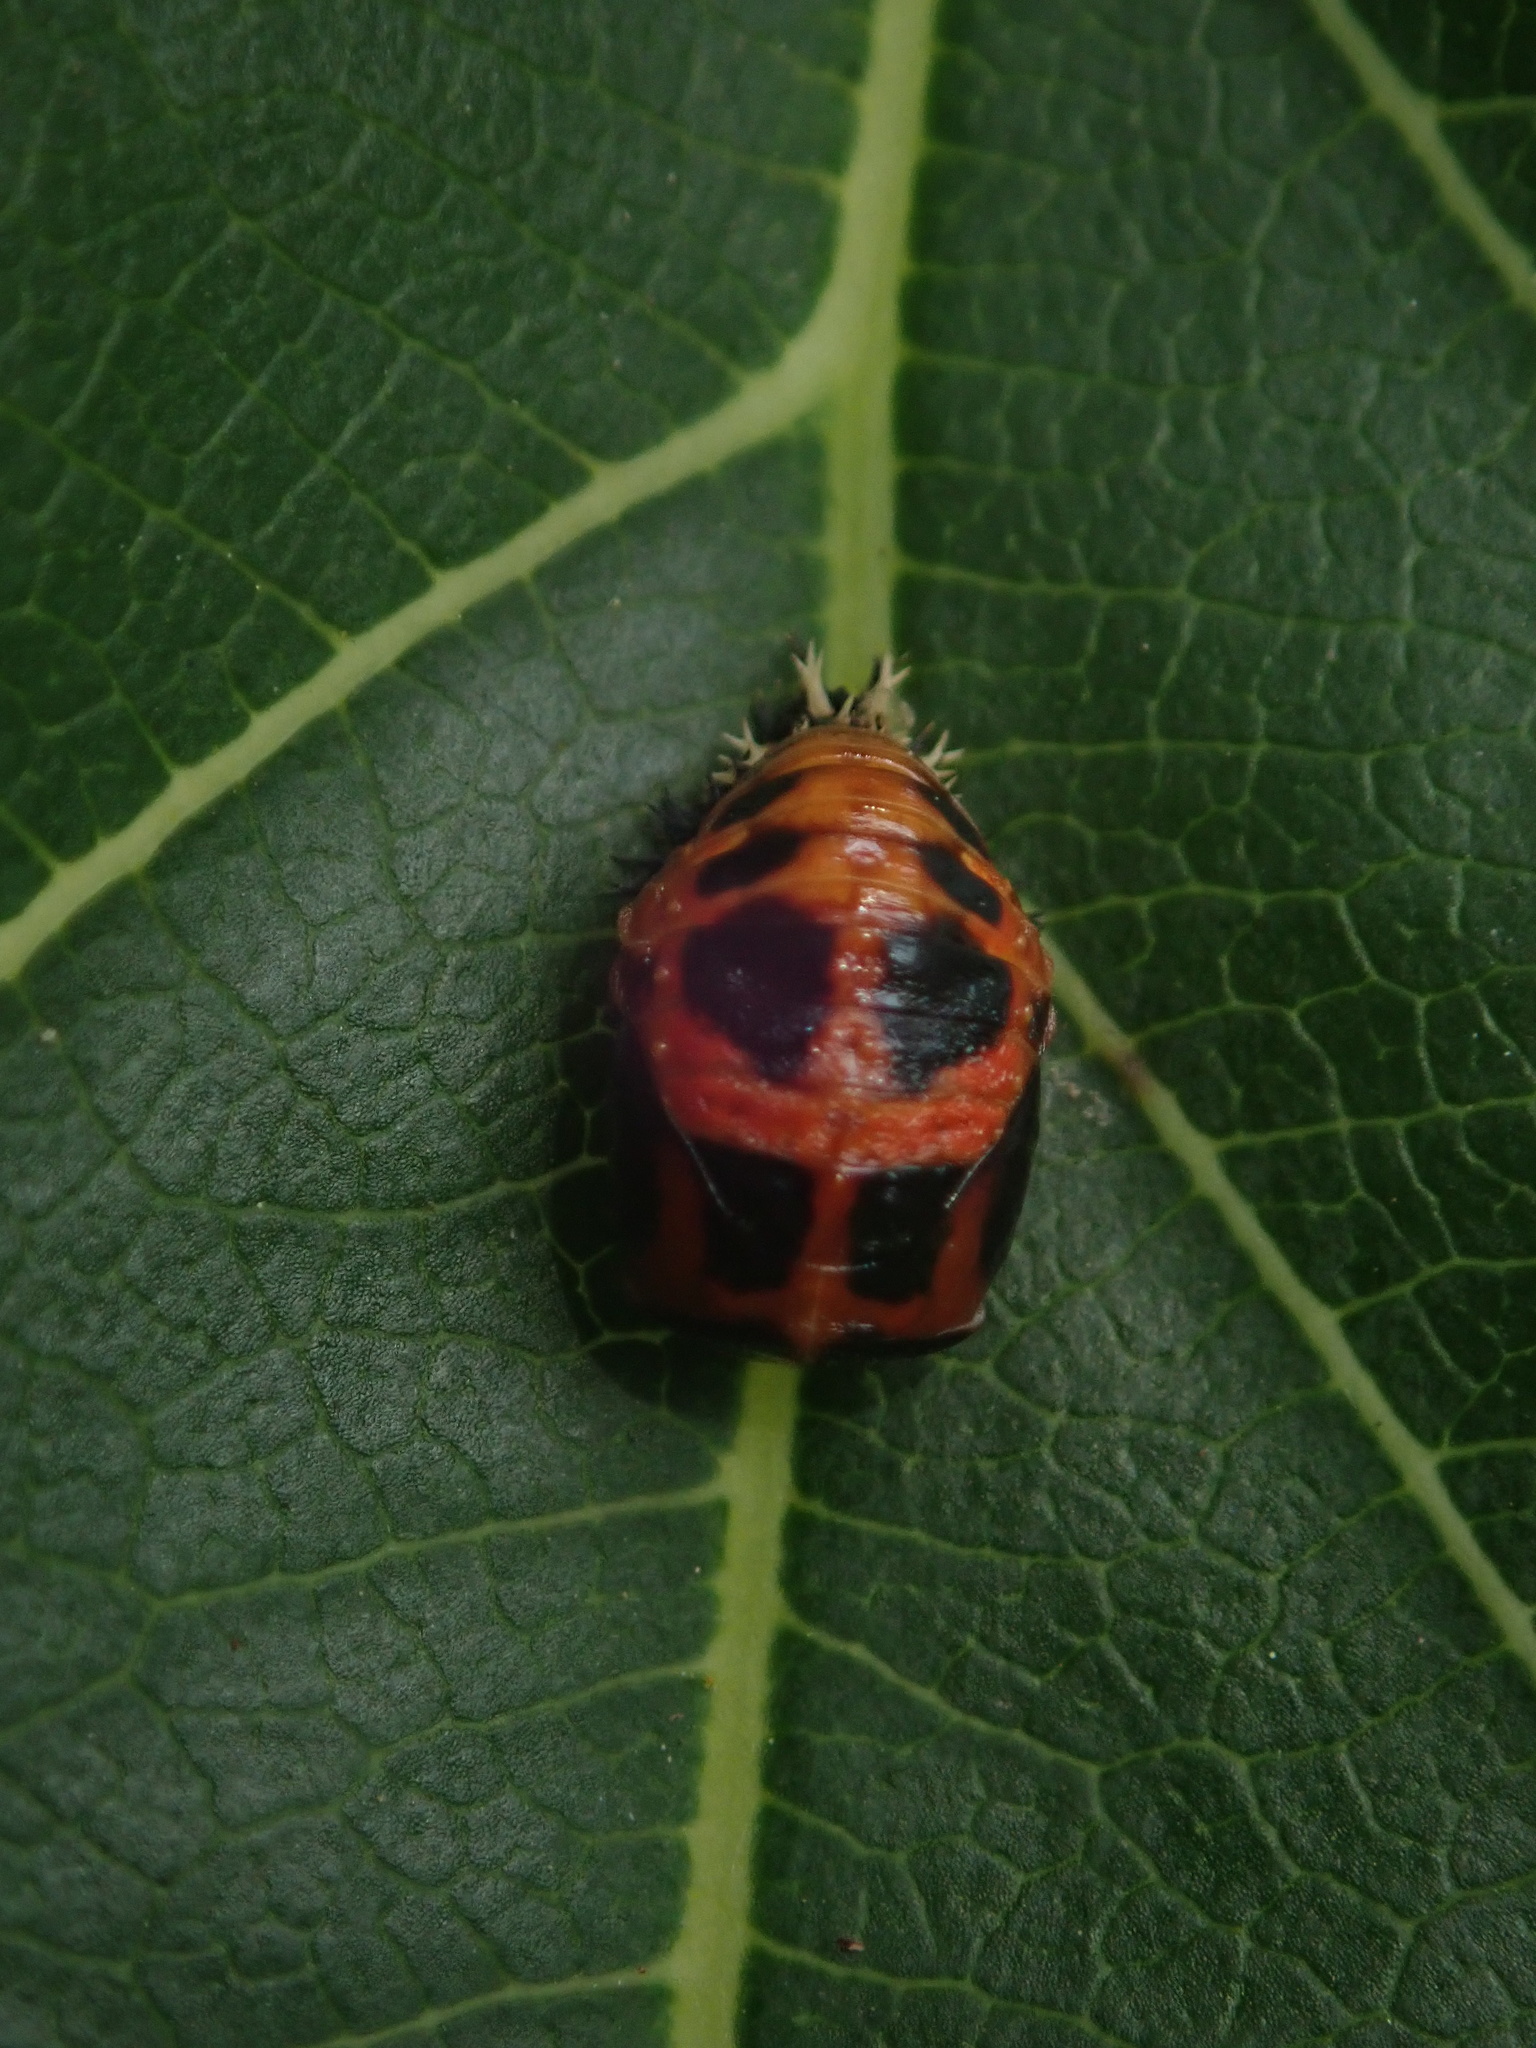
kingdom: Animalia
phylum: Arthropoda
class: Insecta
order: Coleoptera
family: Coccinellidae
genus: Harmonia
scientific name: Harmonia axyridis
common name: Harlequin ladybird
